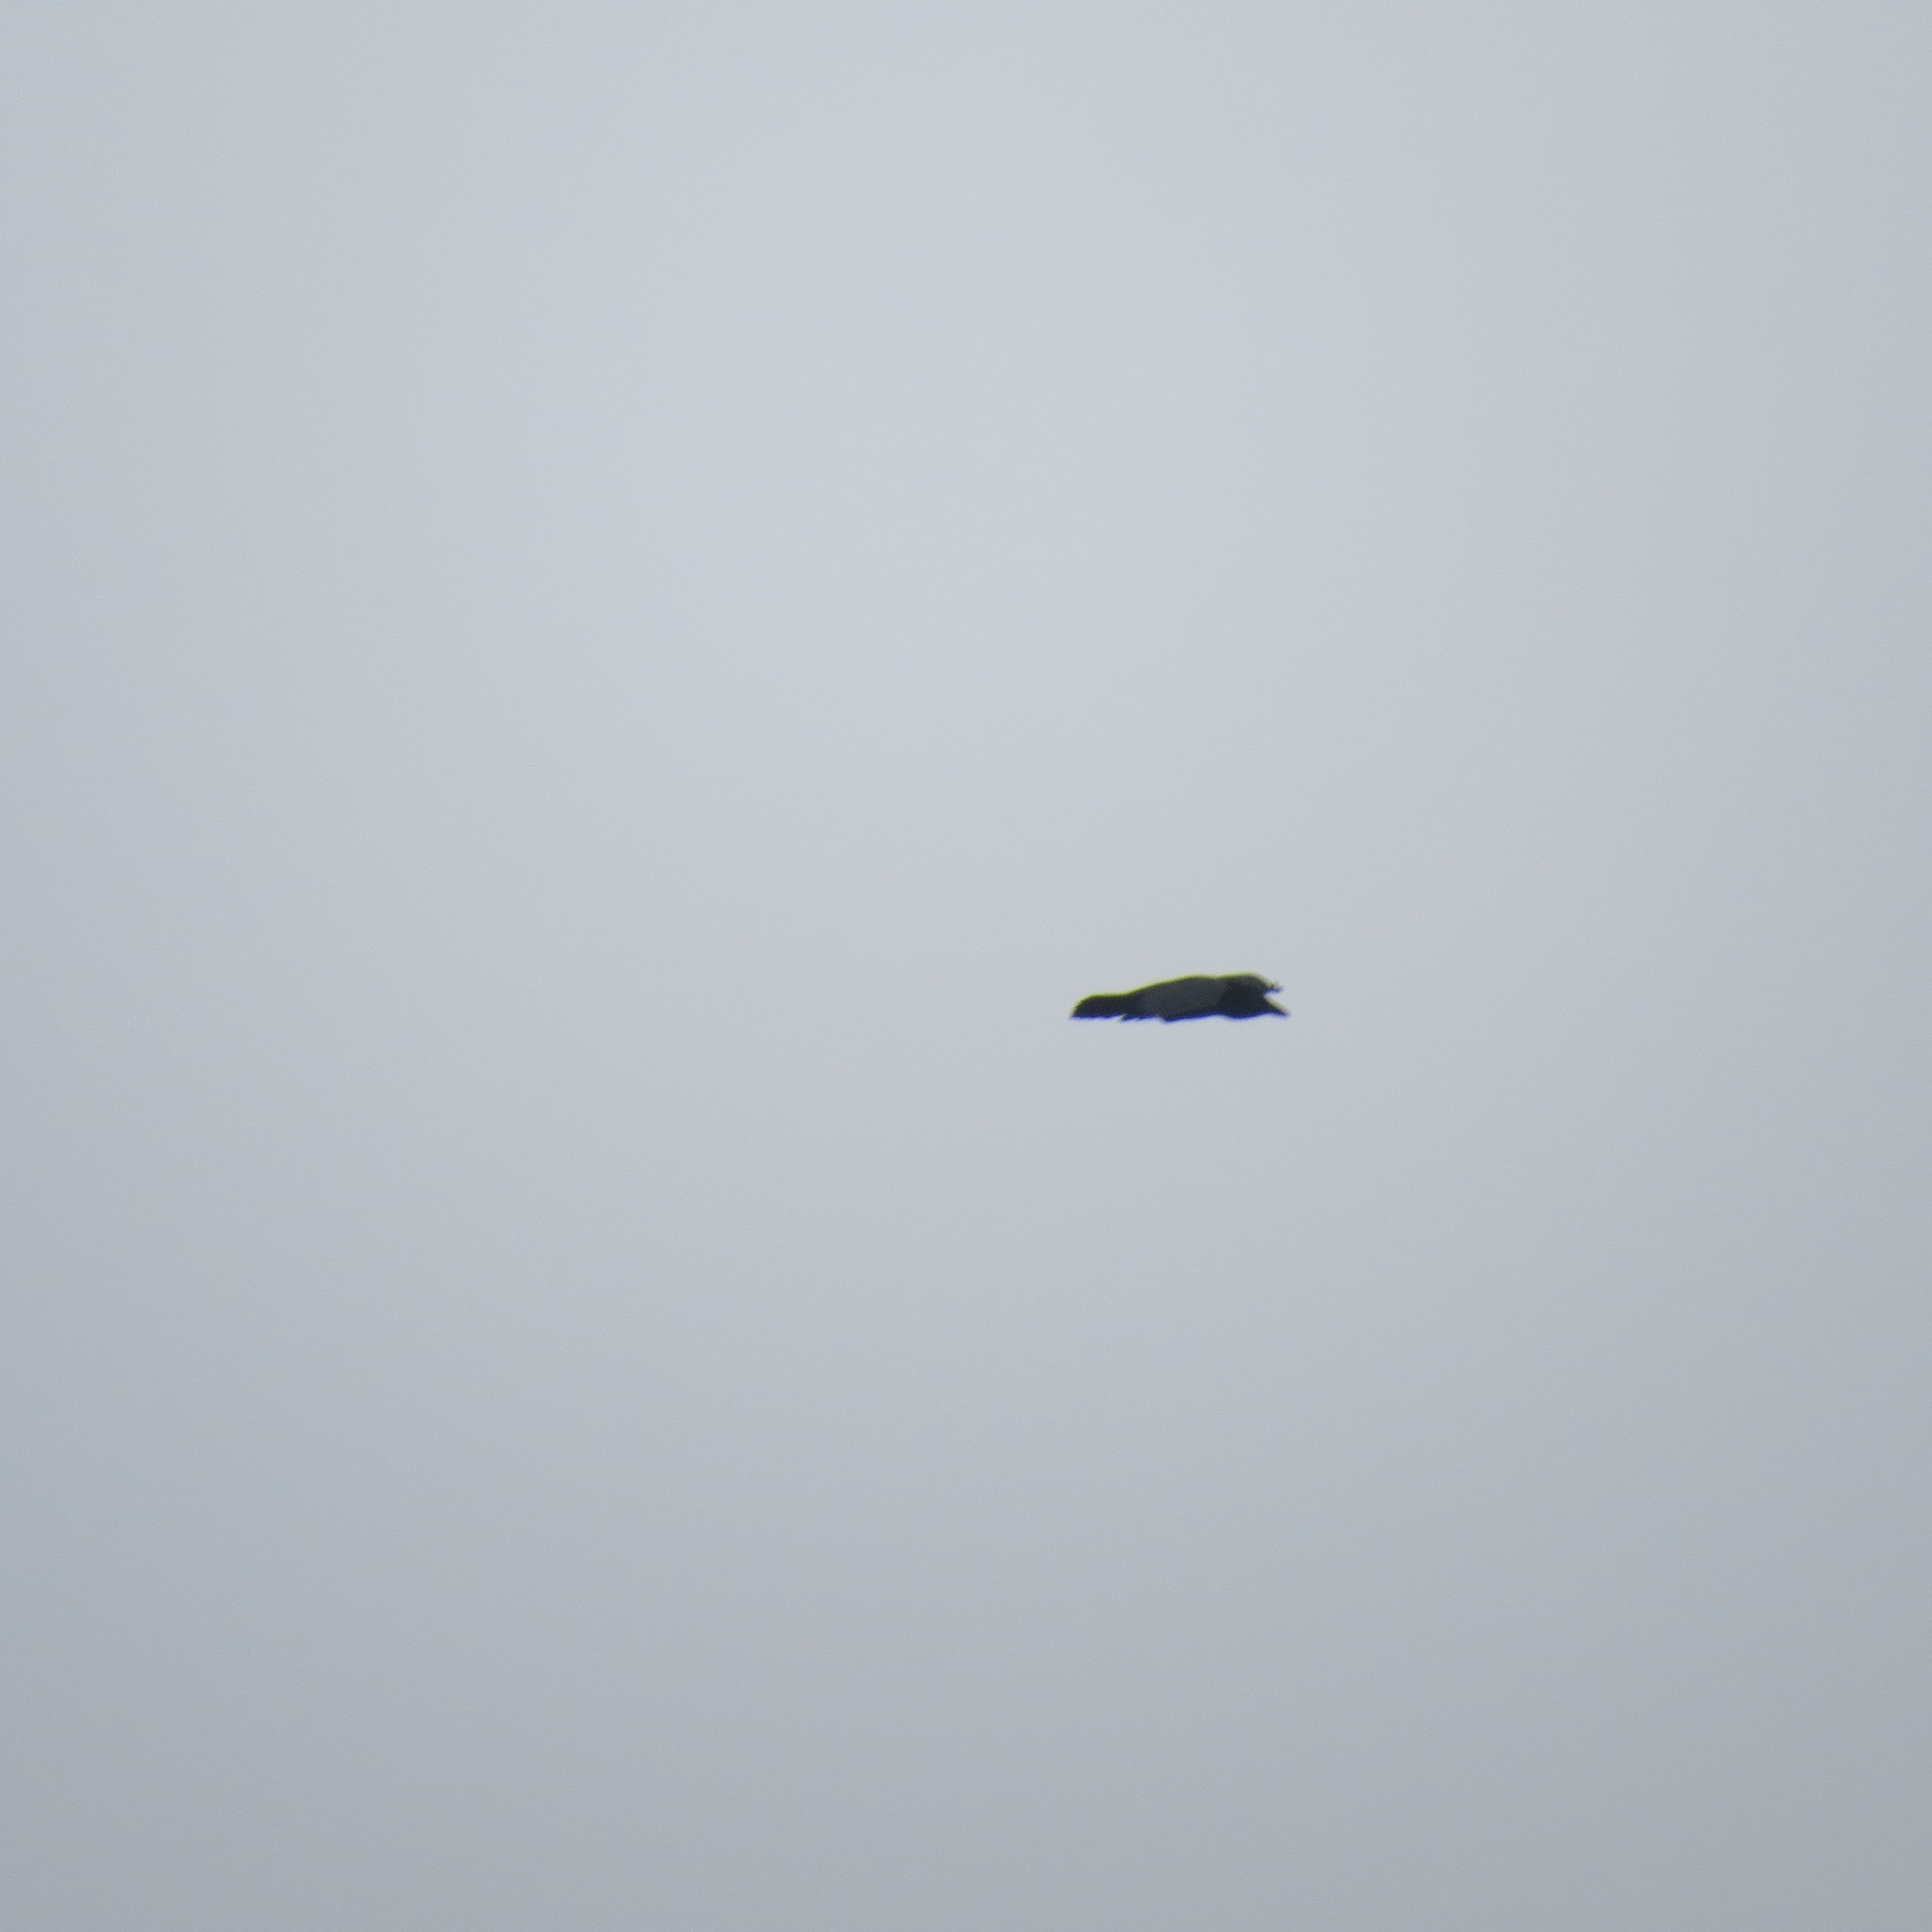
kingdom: Animalia
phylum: Chordata
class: Aves
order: Passeriformes
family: Corvidae
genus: Corvus
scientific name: Corvus corax
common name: Common raven
